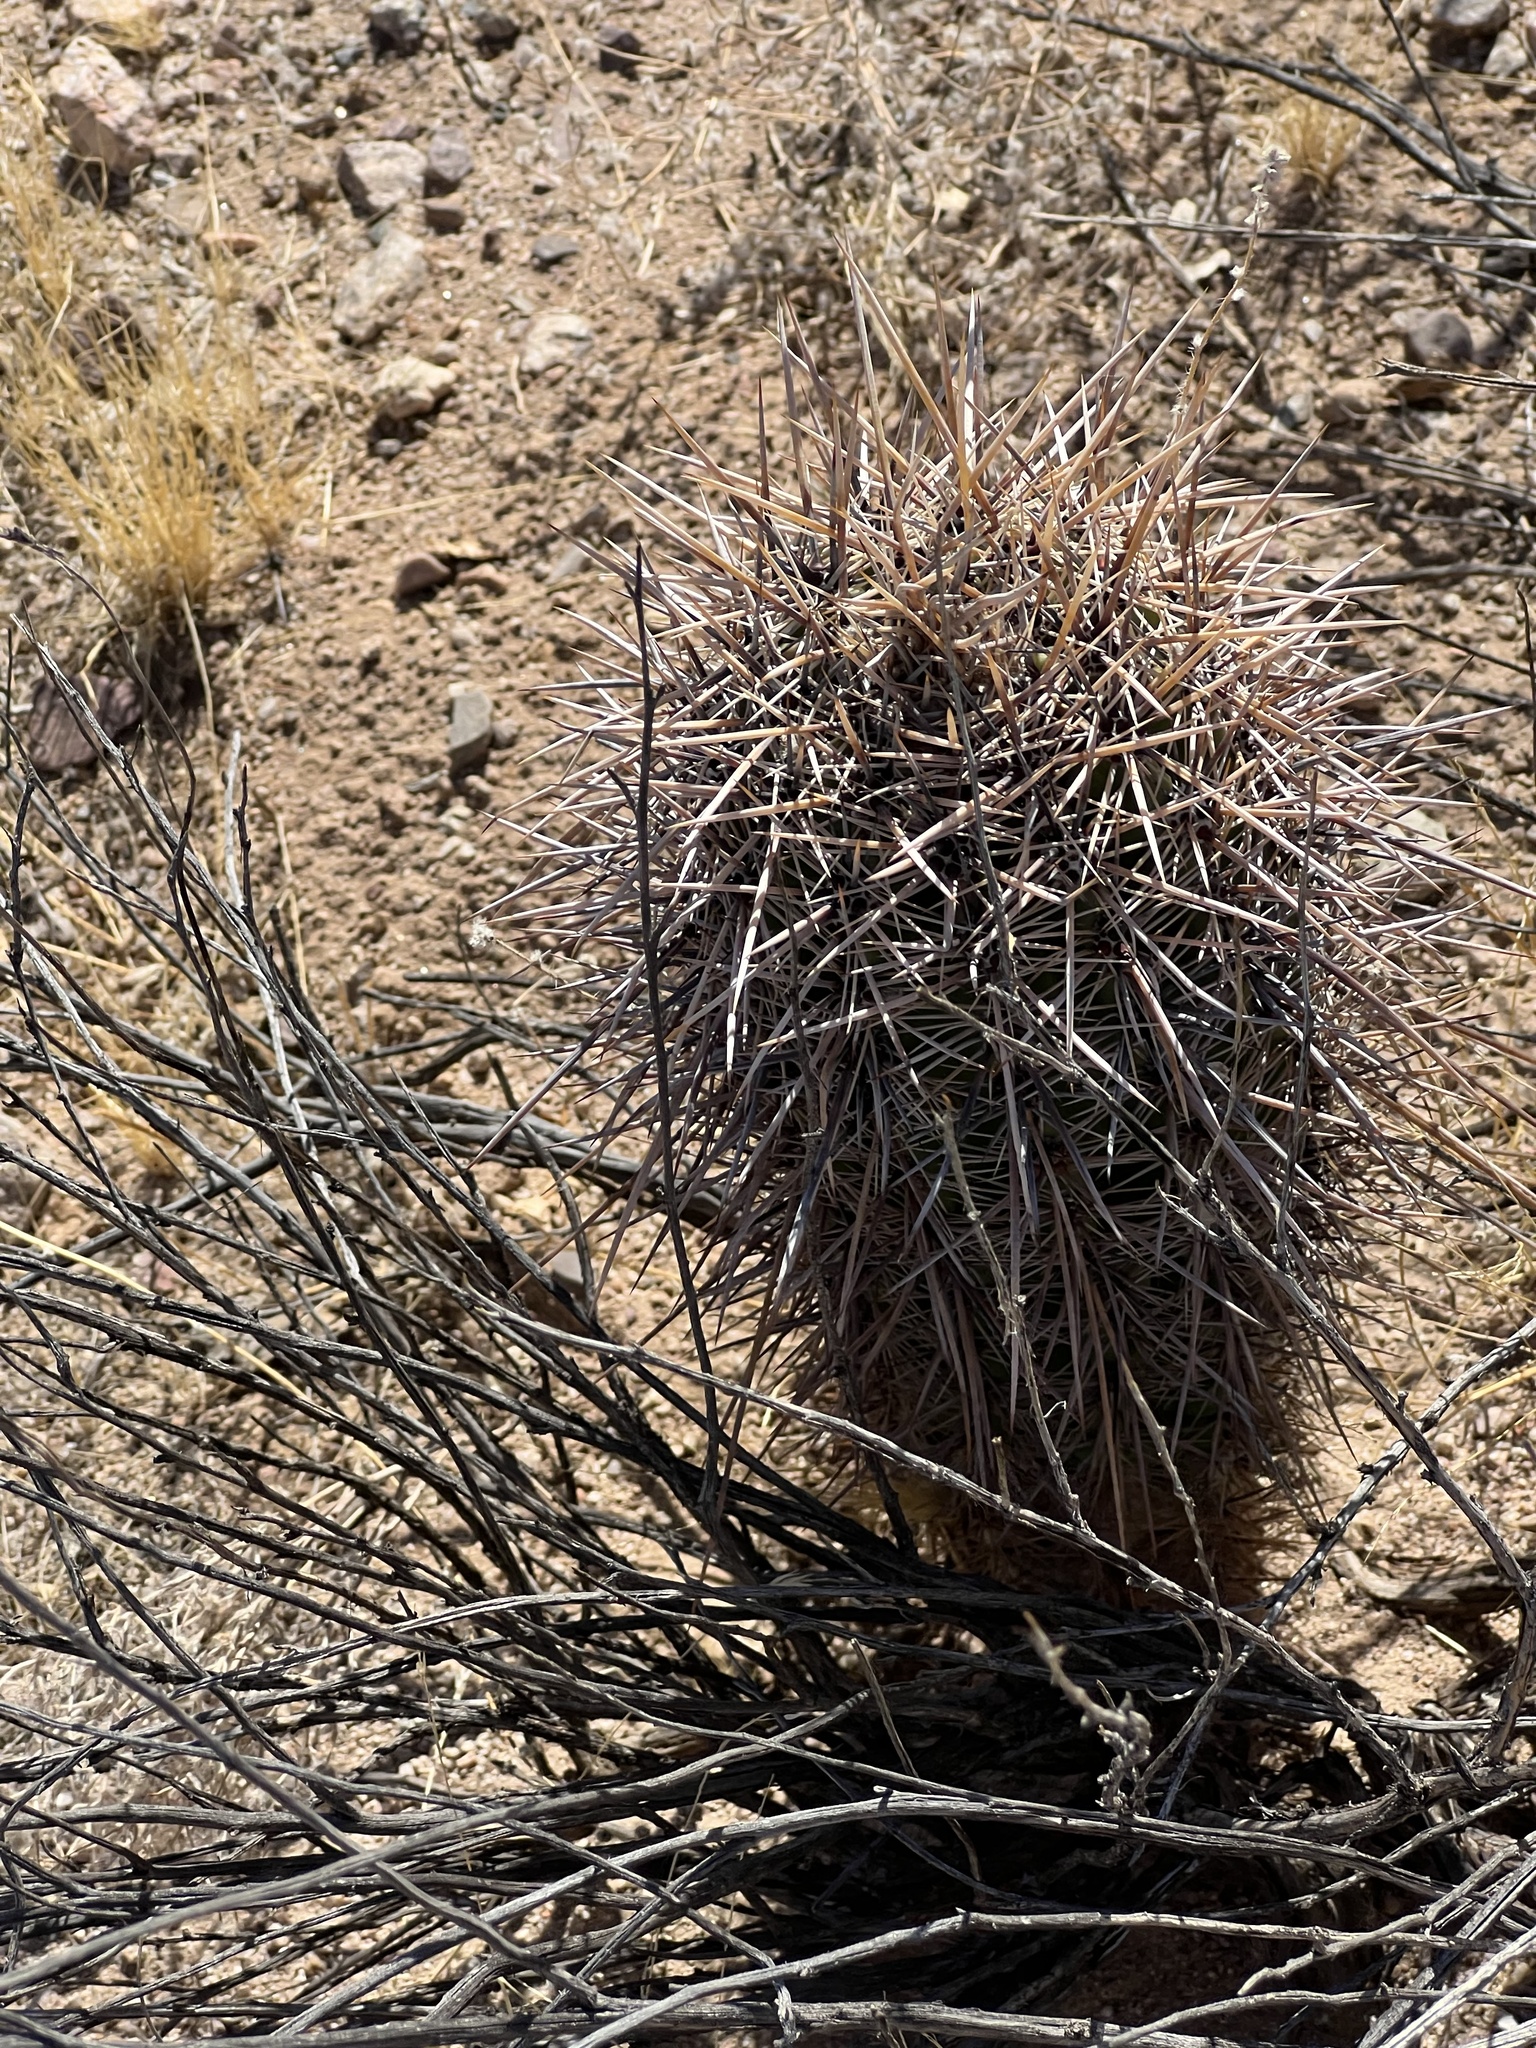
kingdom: Plantae
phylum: Tracheophyta
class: Magnoliopsida
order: Caryophyllales
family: Cactaceae
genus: Carnegiea
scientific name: Carnegiea gigantea
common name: Saguaro
